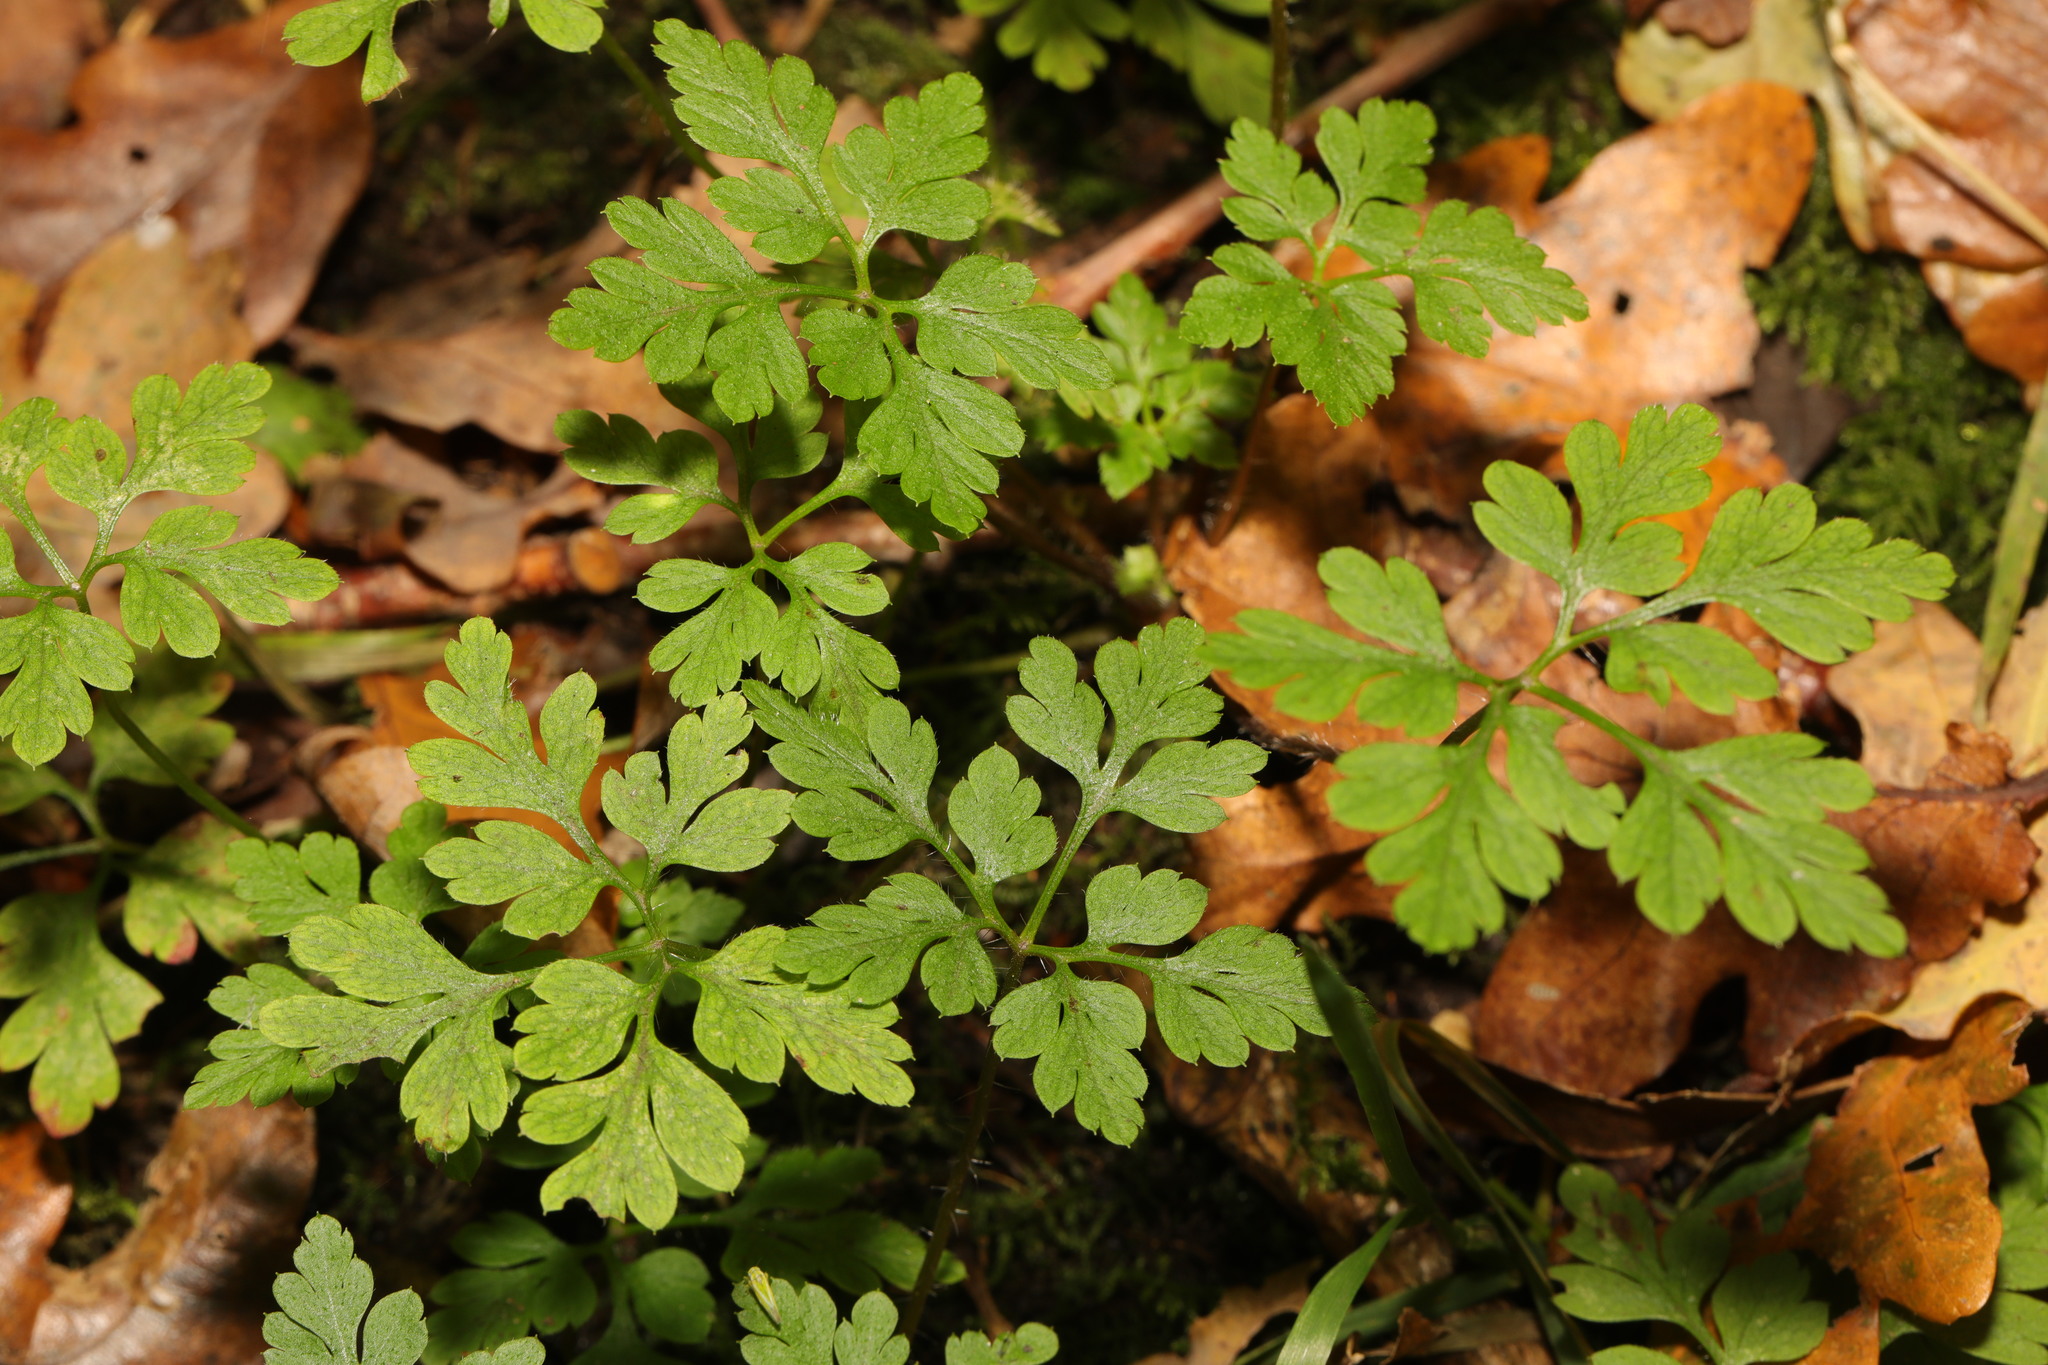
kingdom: Plantae
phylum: Tracheophyta
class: Magnoliopsida
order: Geraniales
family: Geraniaceae
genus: Geranium
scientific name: Geranium robertianum
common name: Herb-robert
